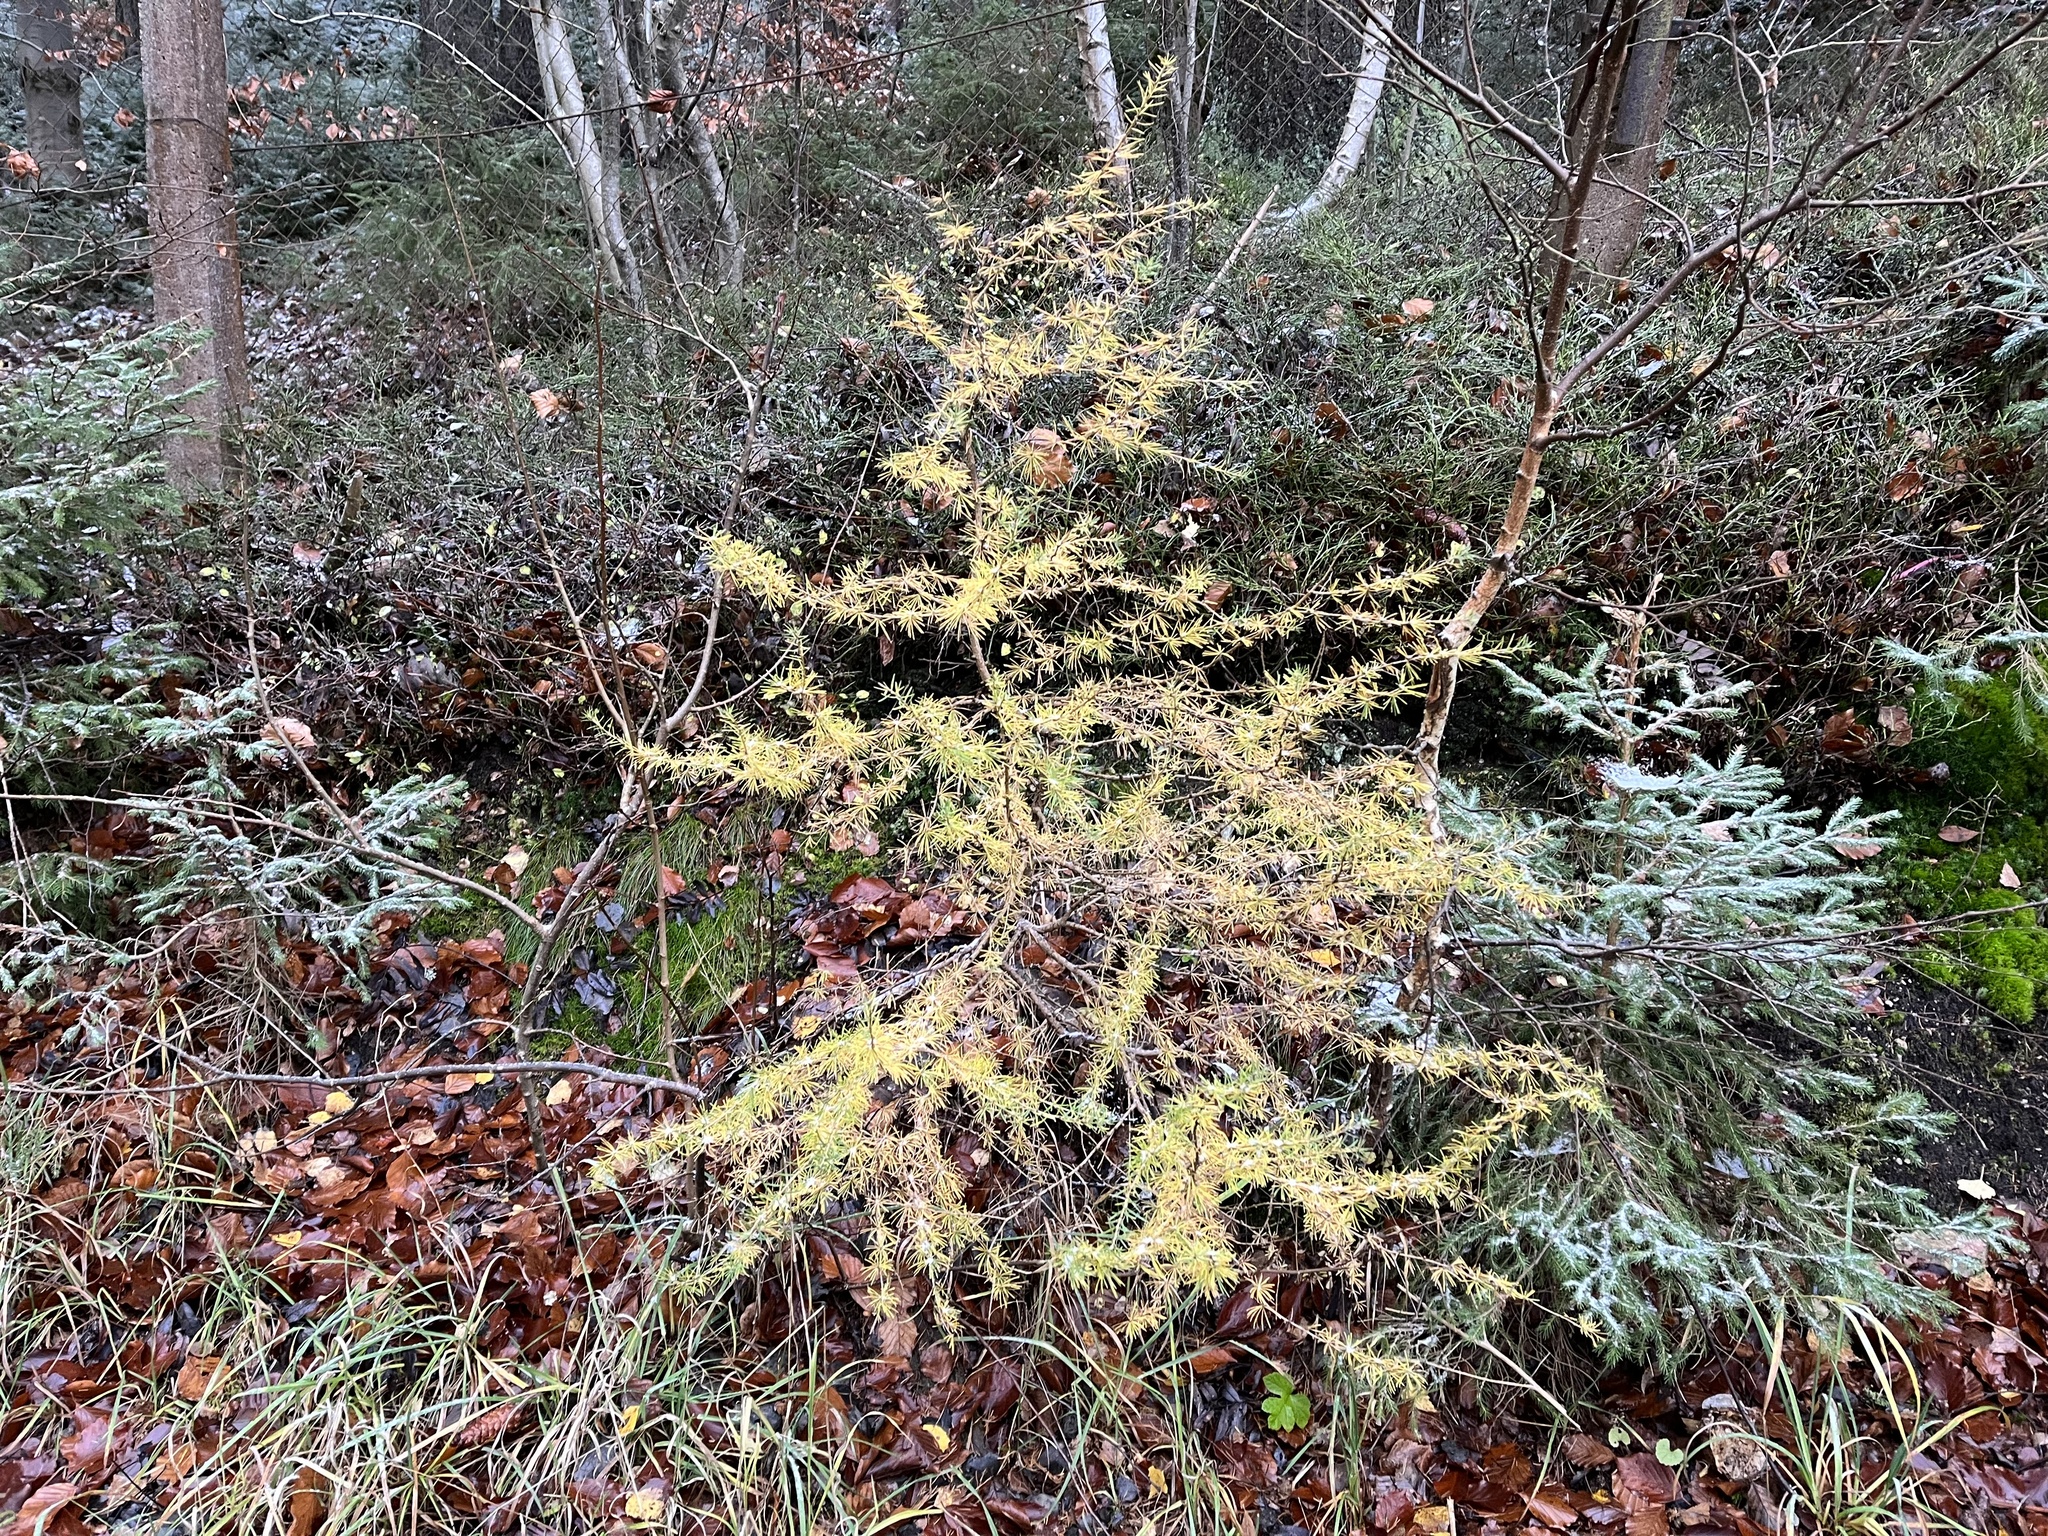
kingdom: Plantae
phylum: Tracheophyta
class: Pinopsida
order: Pinales
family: Pinaceae
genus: Larix
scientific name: Larix decidua
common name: European larch
